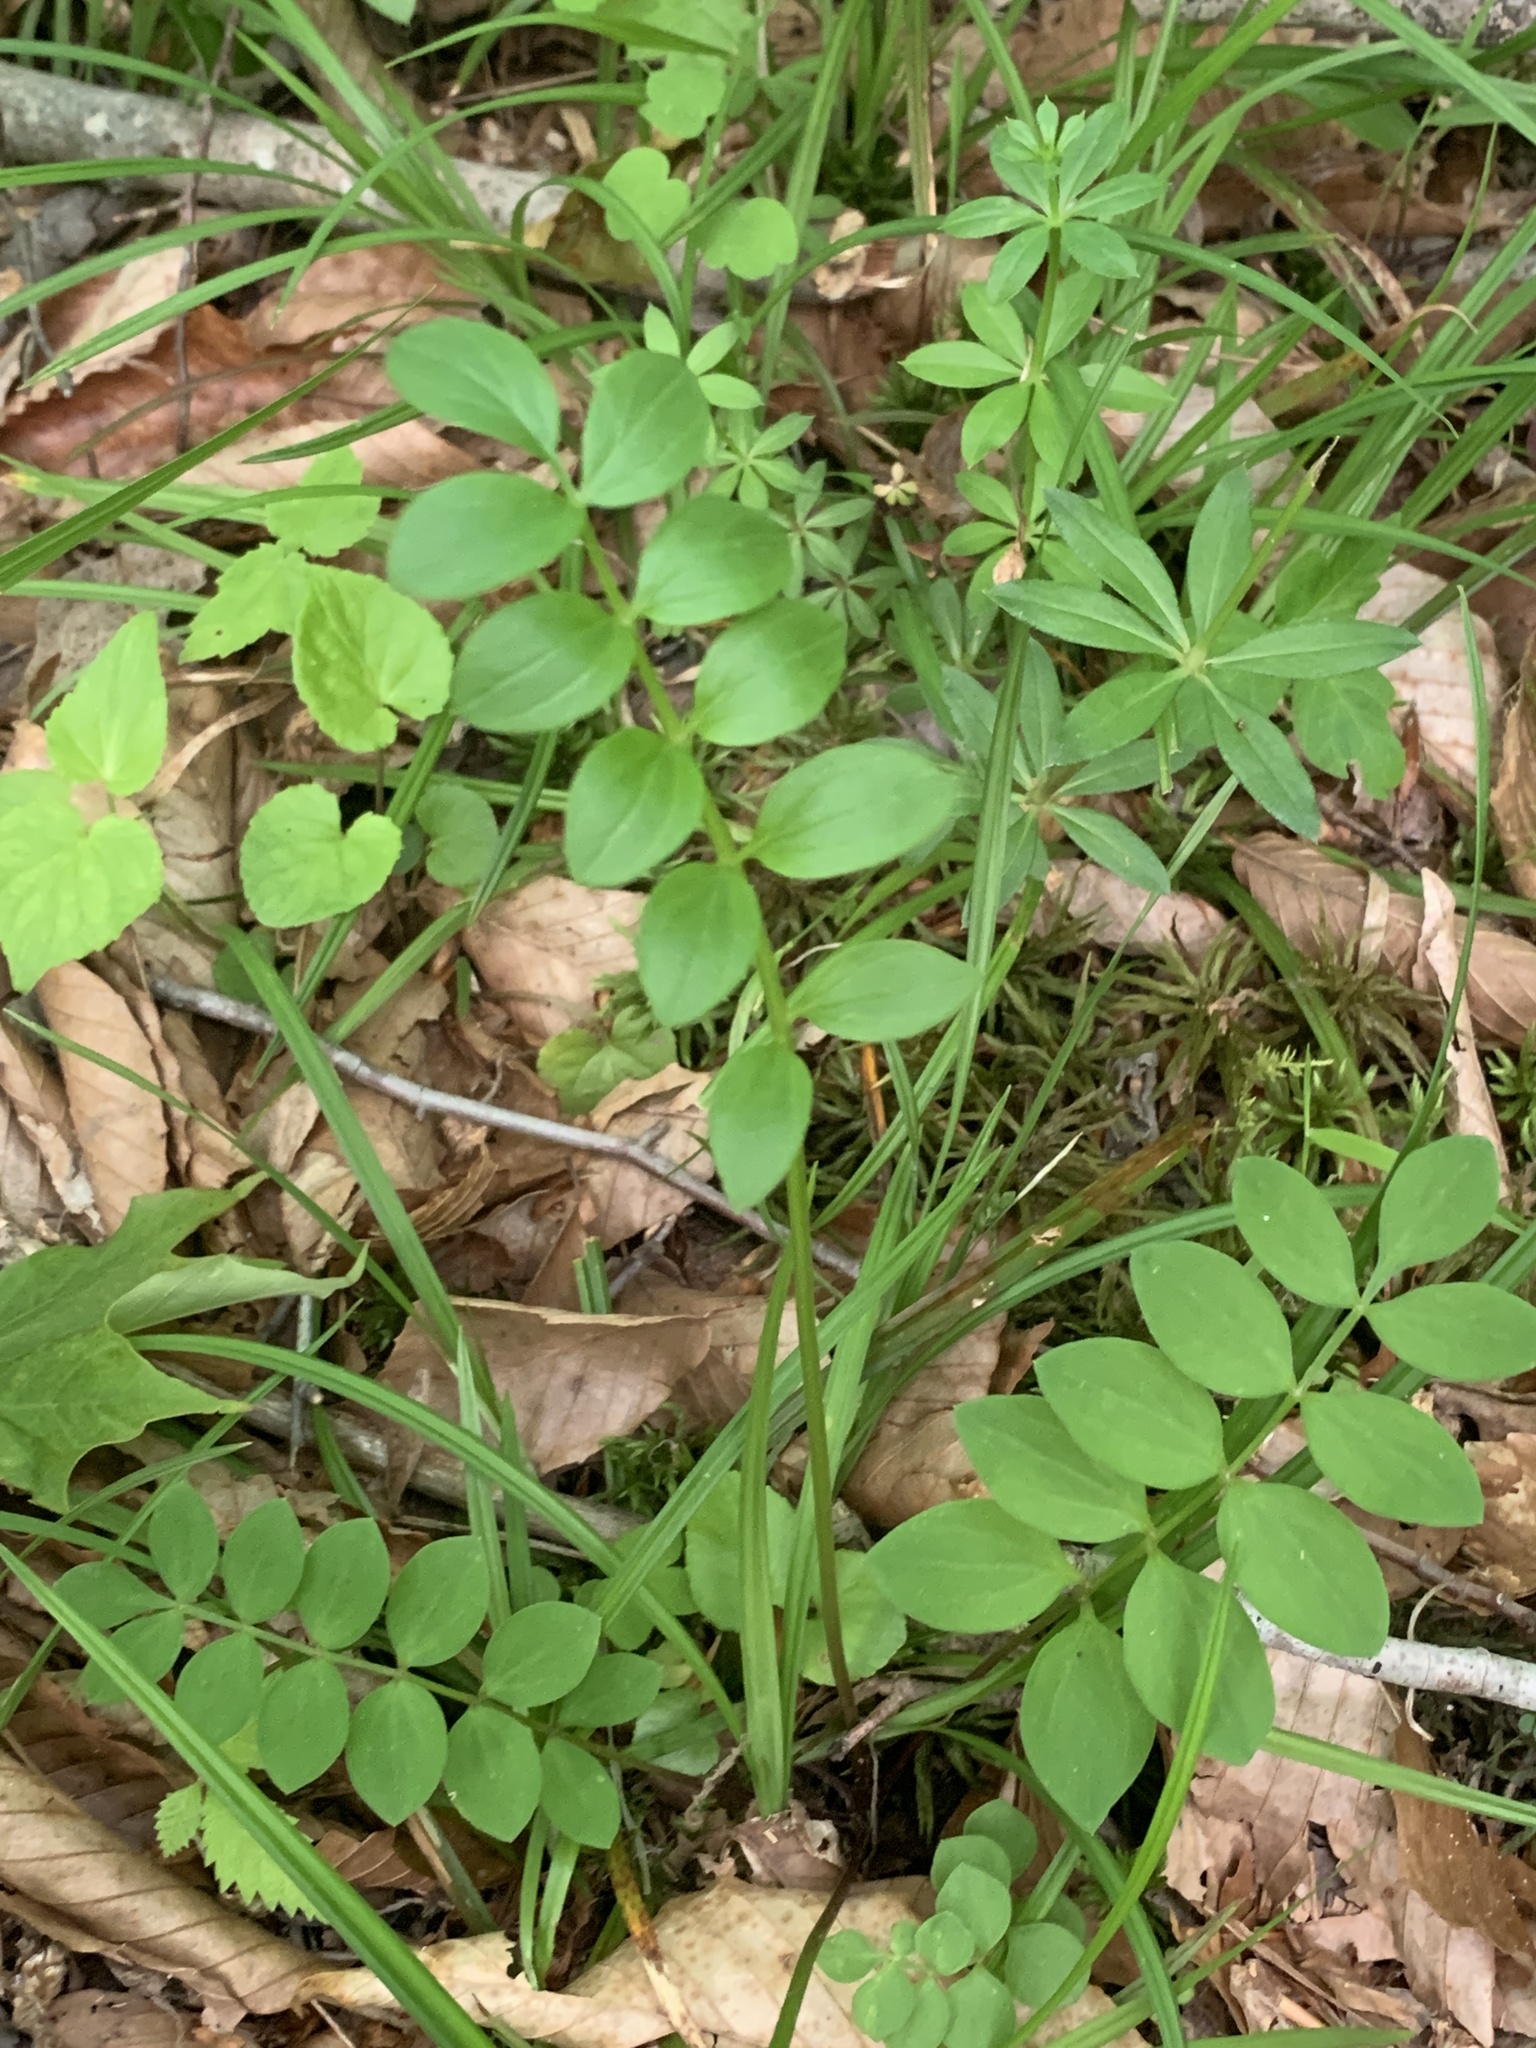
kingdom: Plantae
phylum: Tracheophyta
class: Magnoliopsida
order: Ericales
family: Polemoniaceae
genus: Polemonium
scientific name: Polemonium reptans
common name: Creeping jacob's-ladder
